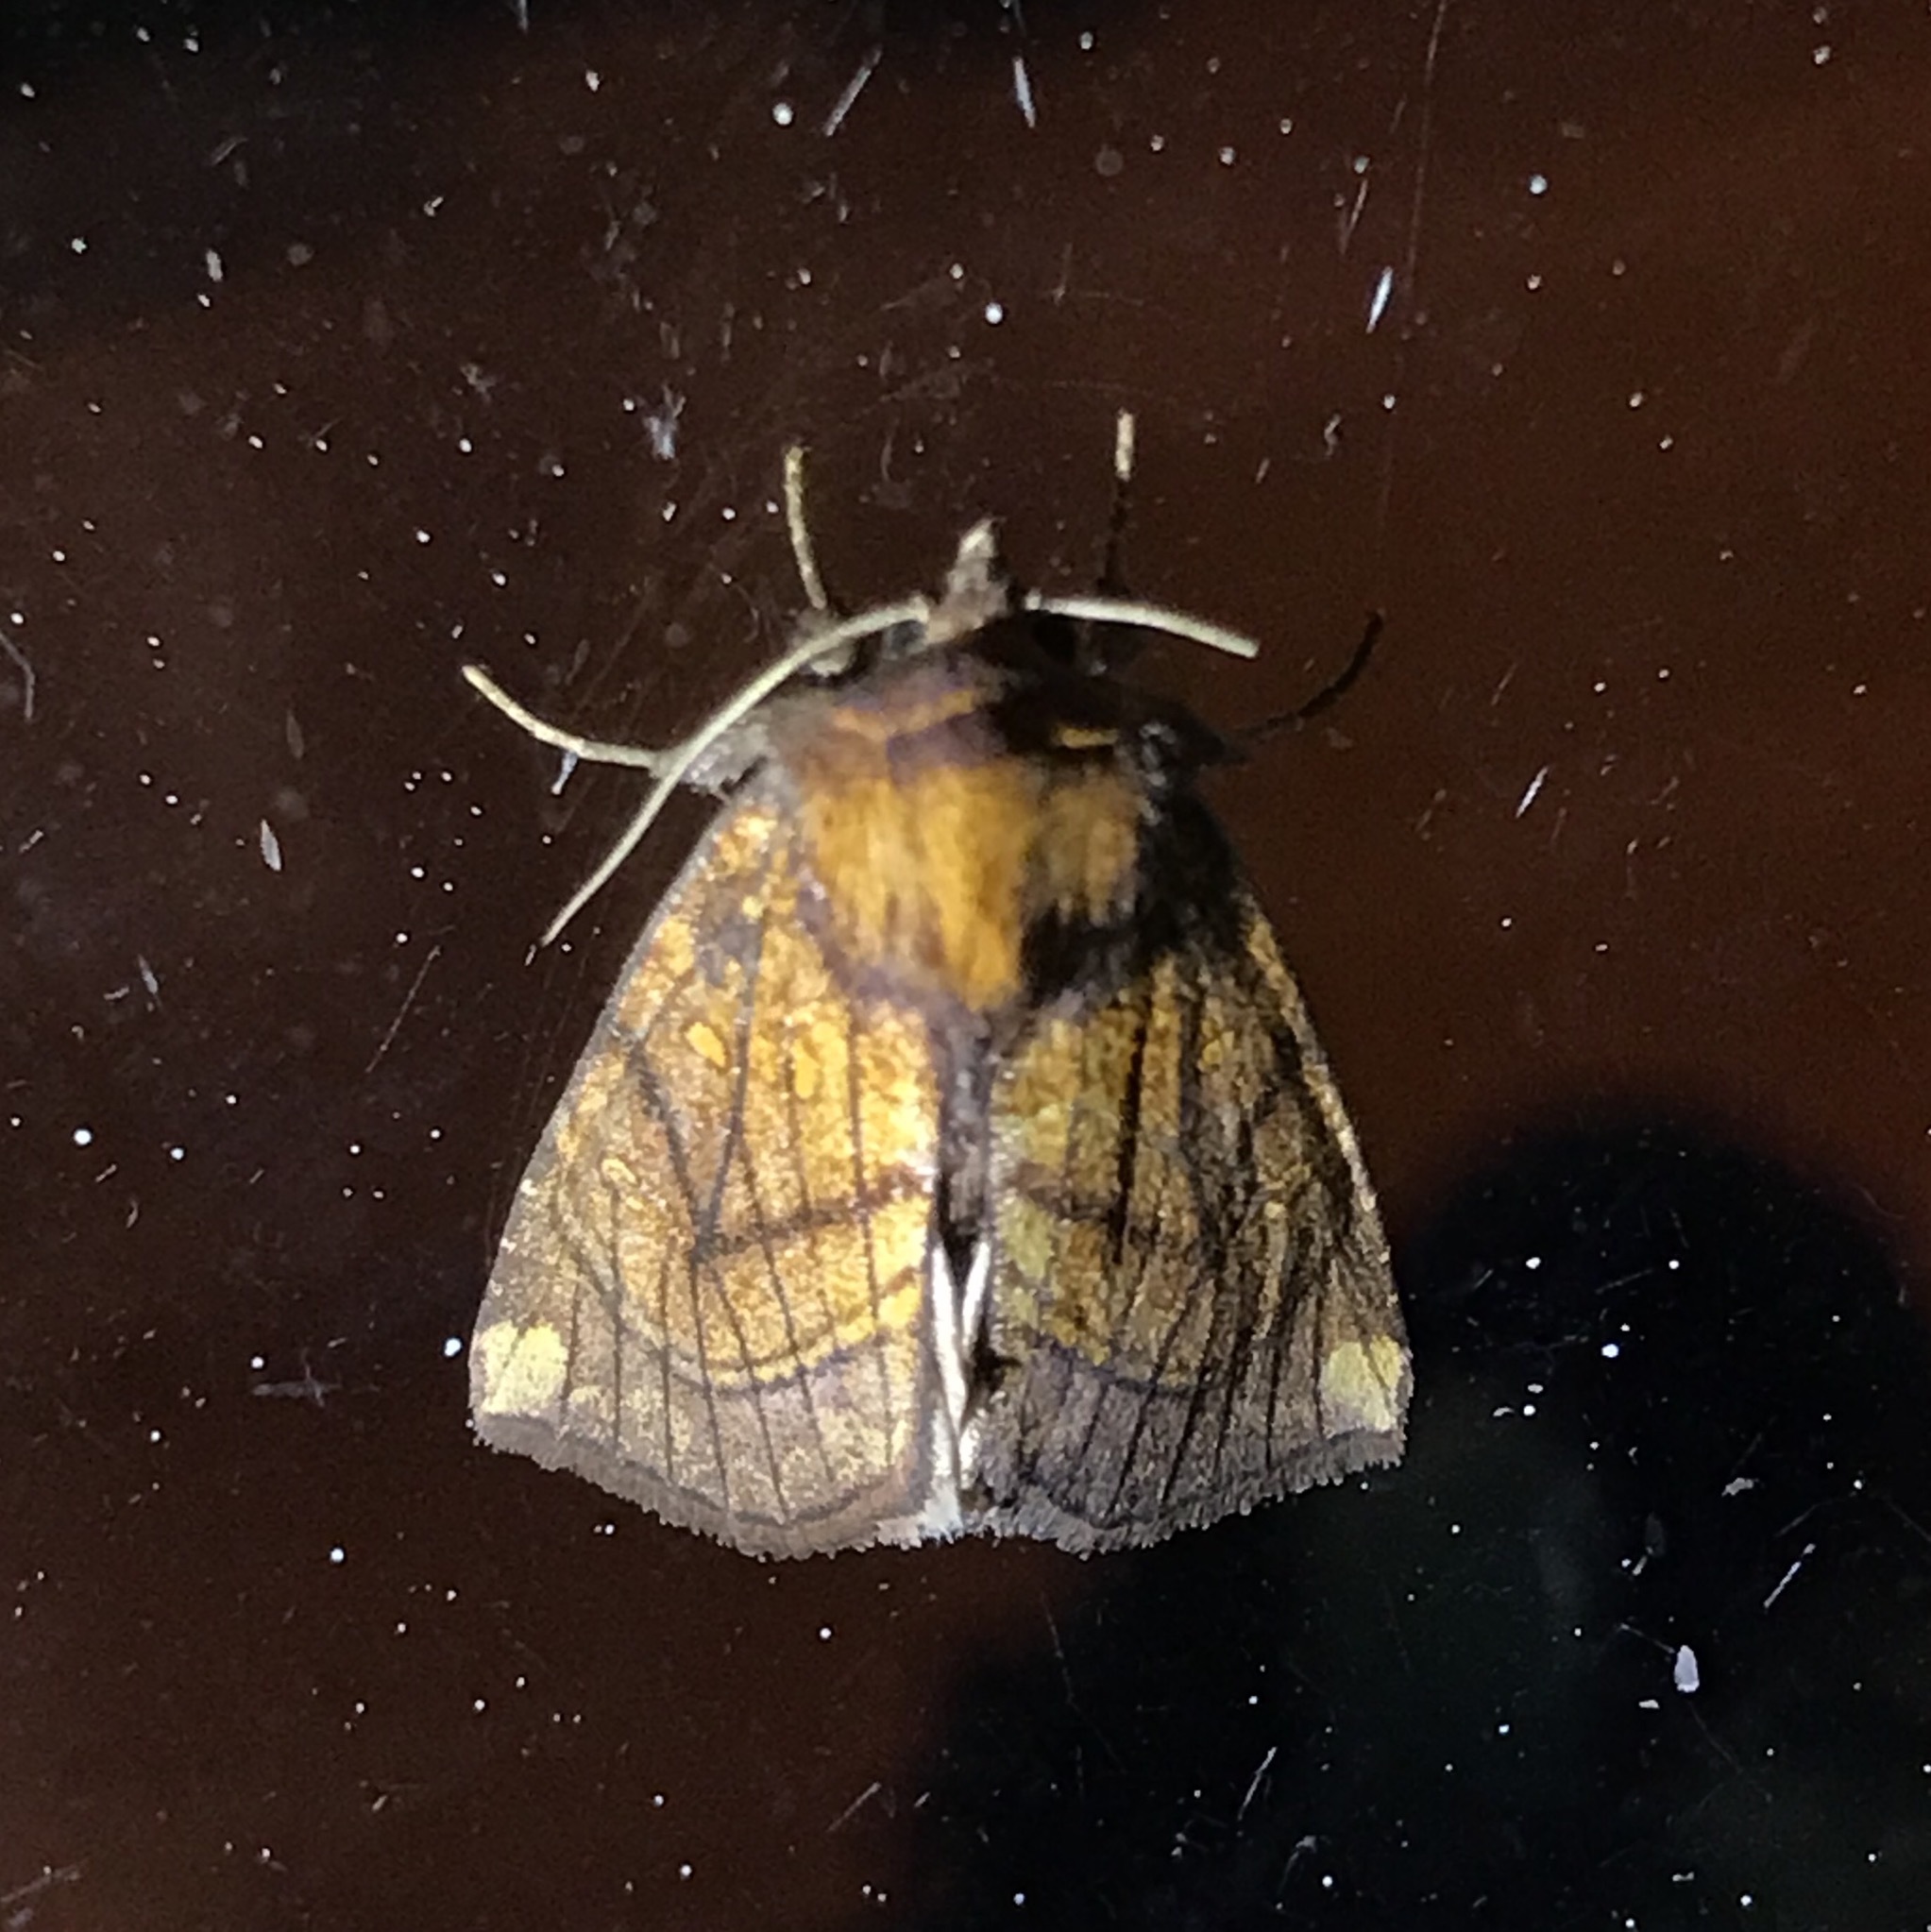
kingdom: Animalia
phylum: Arthropoda
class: Insecta
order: Lepidoptera
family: Noctuidae
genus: Papaipema
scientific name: Papaipema inquaesita
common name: Sensitive fern borer moth
